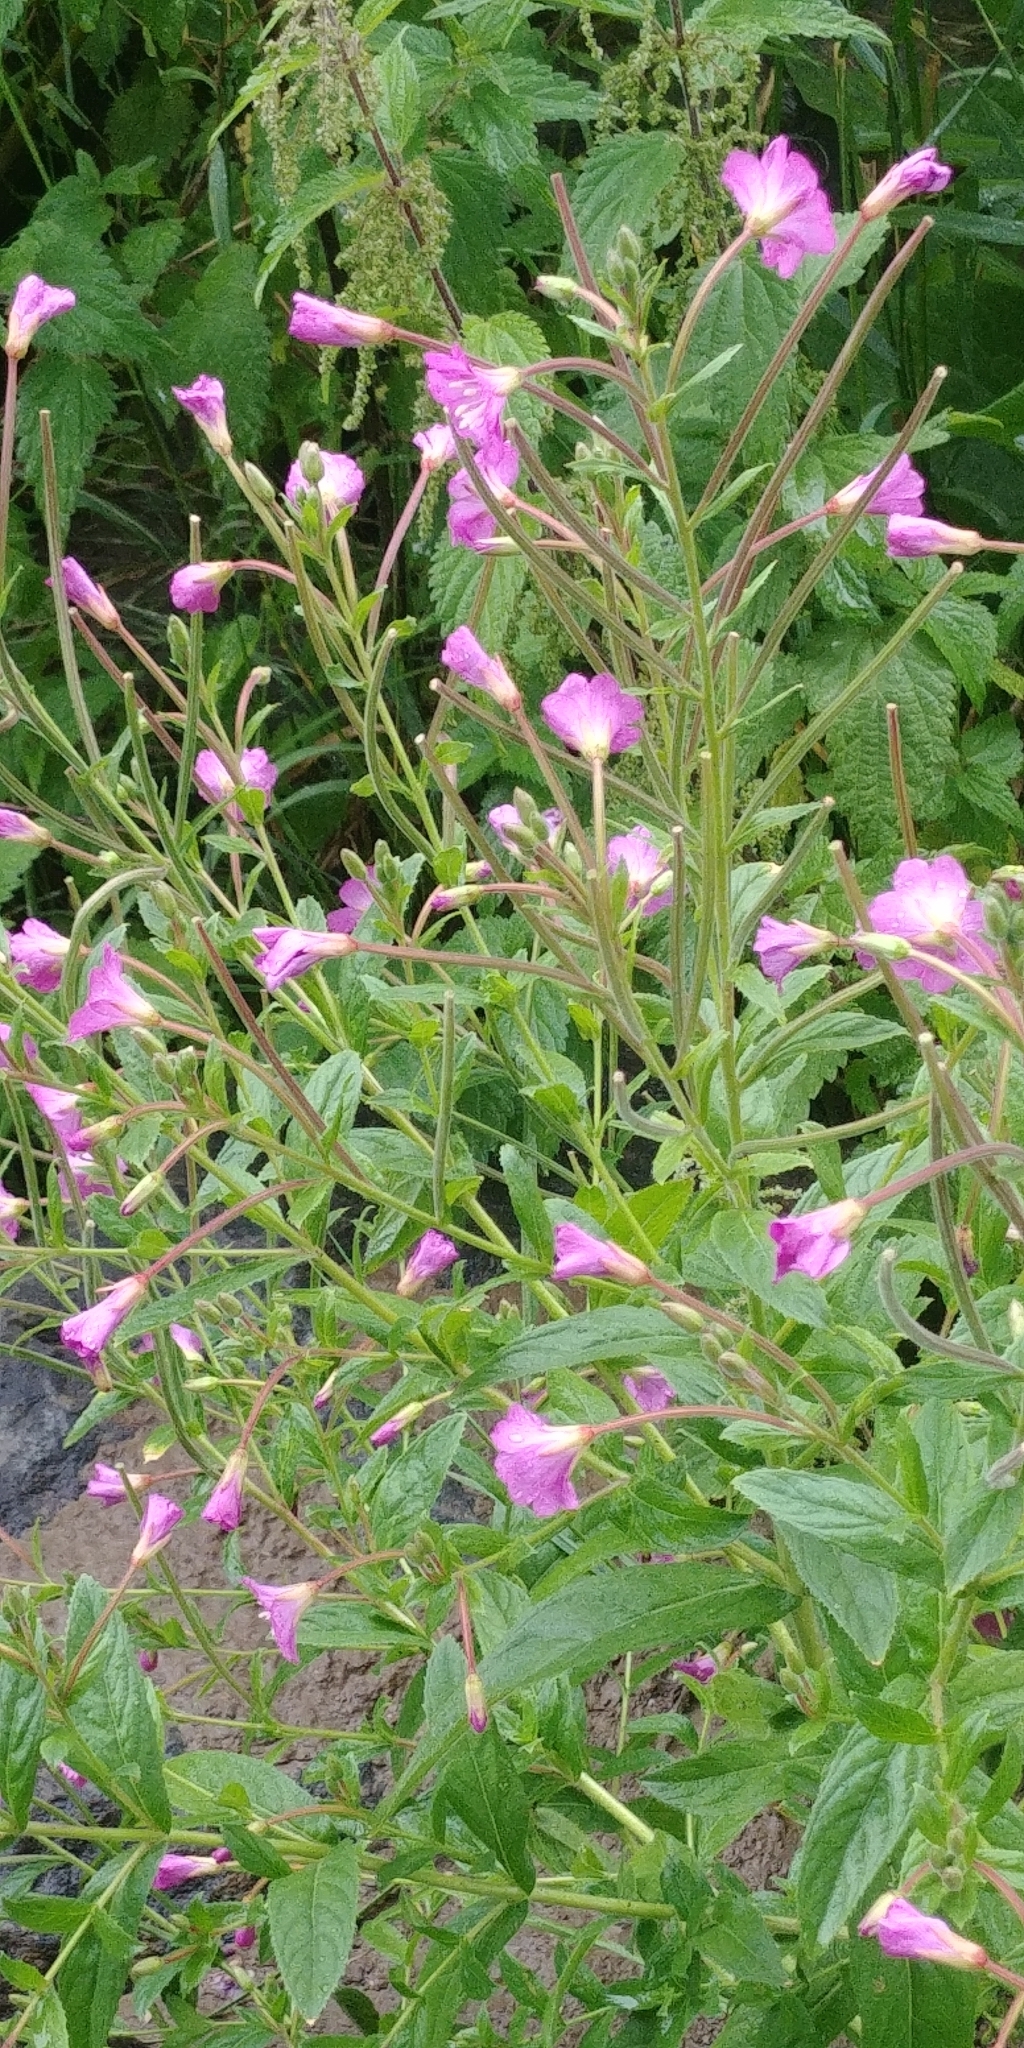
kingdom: Plantae
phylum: Tracheophyta
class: Magnoliopsida
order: Myrtales
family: Onagraceae
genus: Epilobium
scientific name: Epilobium hirsutum
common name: Great willowherb
